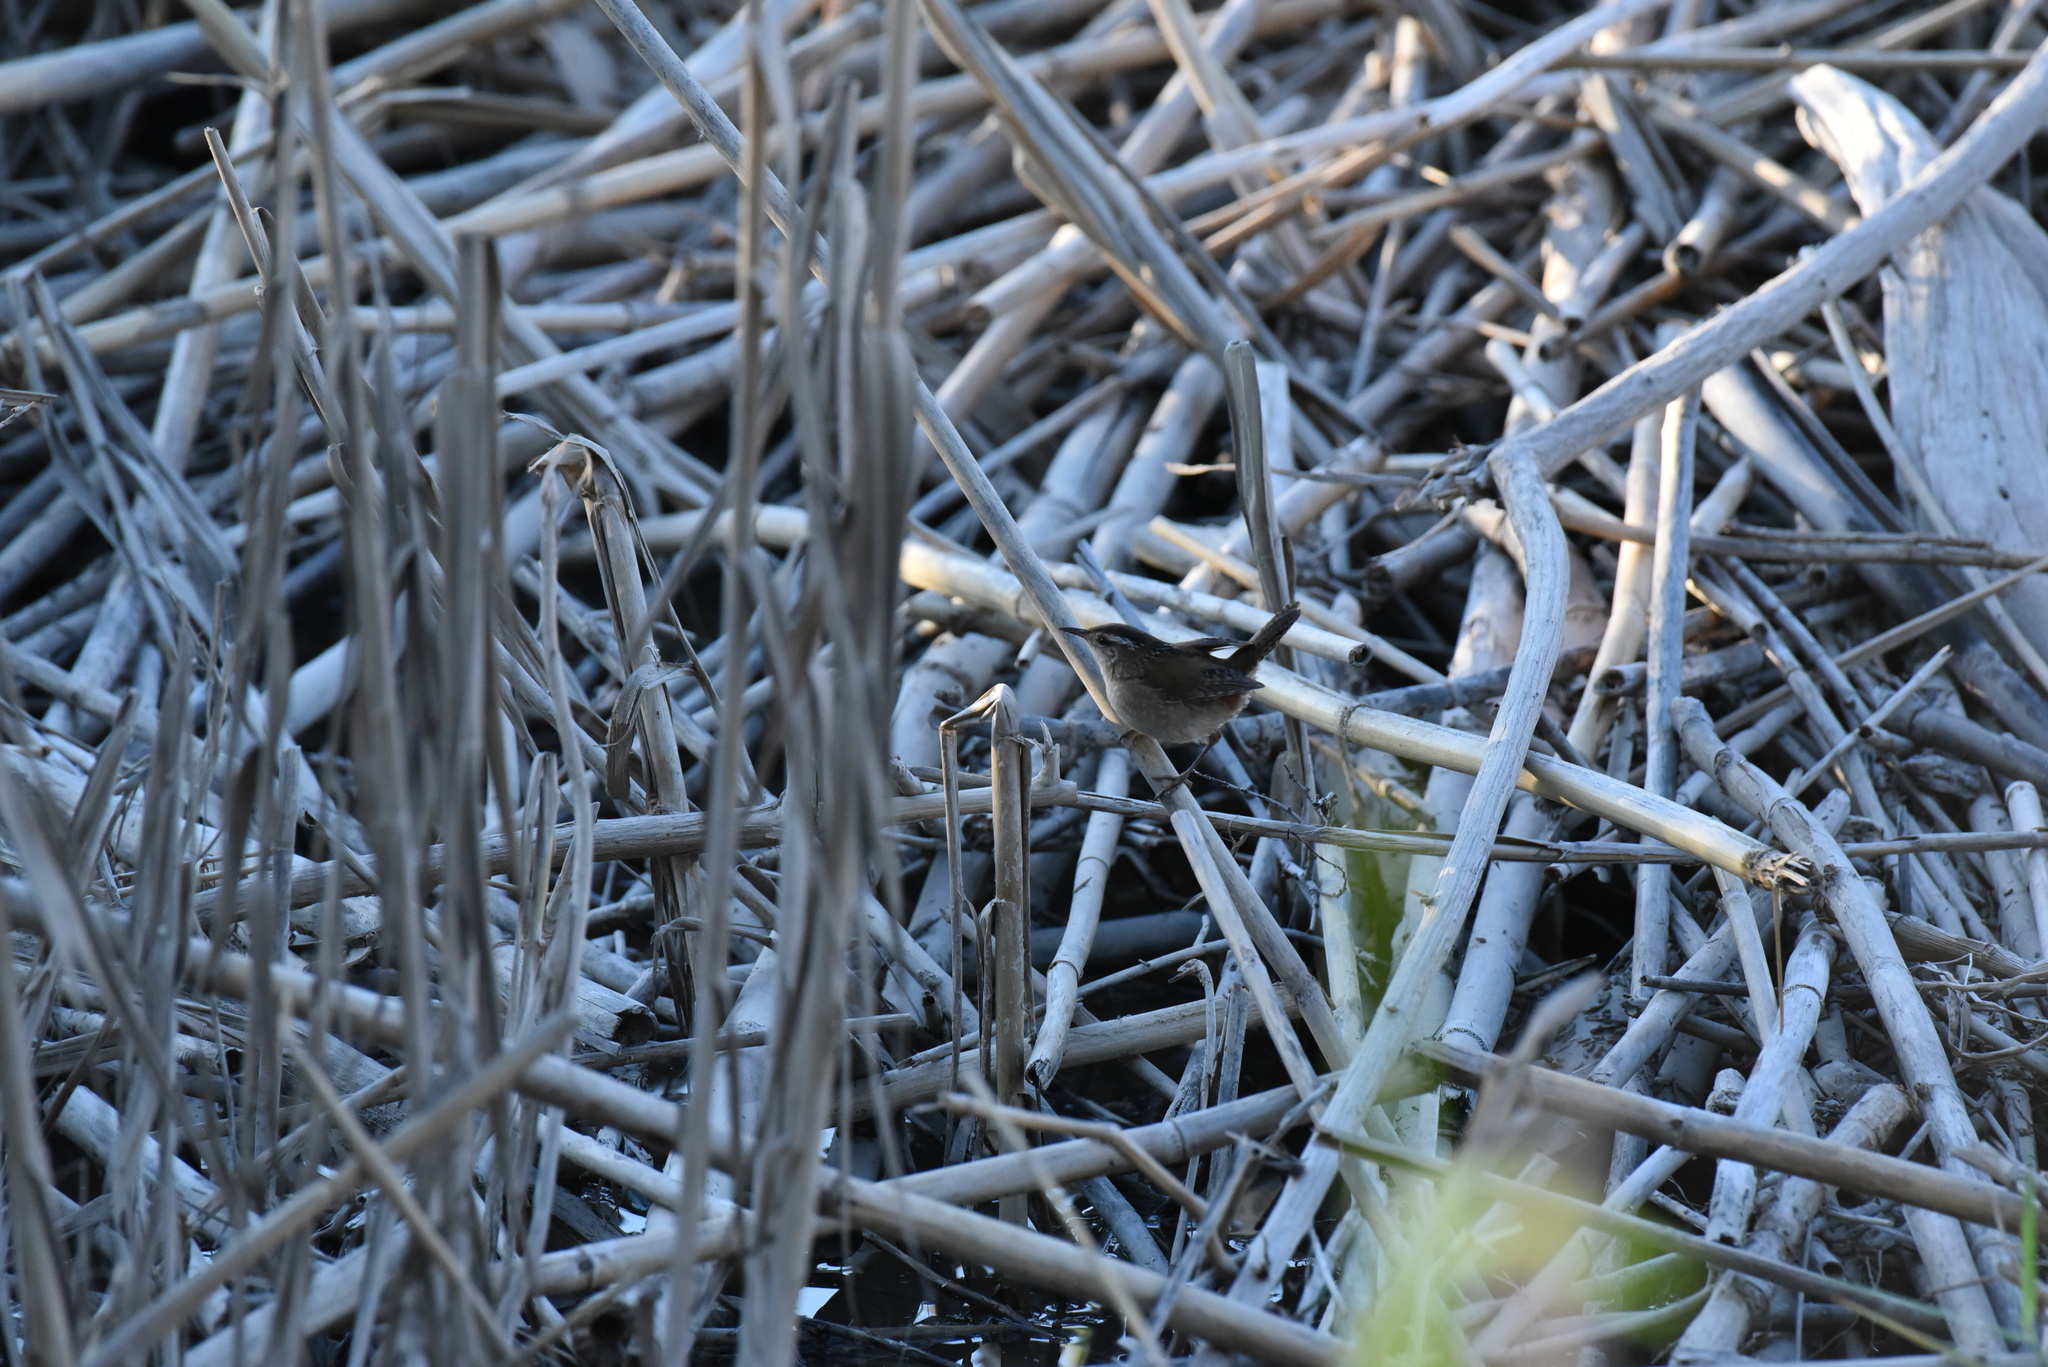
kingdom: Animalia
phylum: Chordata
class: Aves
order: Passeriformes
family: Troglodytidae
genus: Cistothorus
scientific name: Cistothorus palustris
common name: Marsh wren
